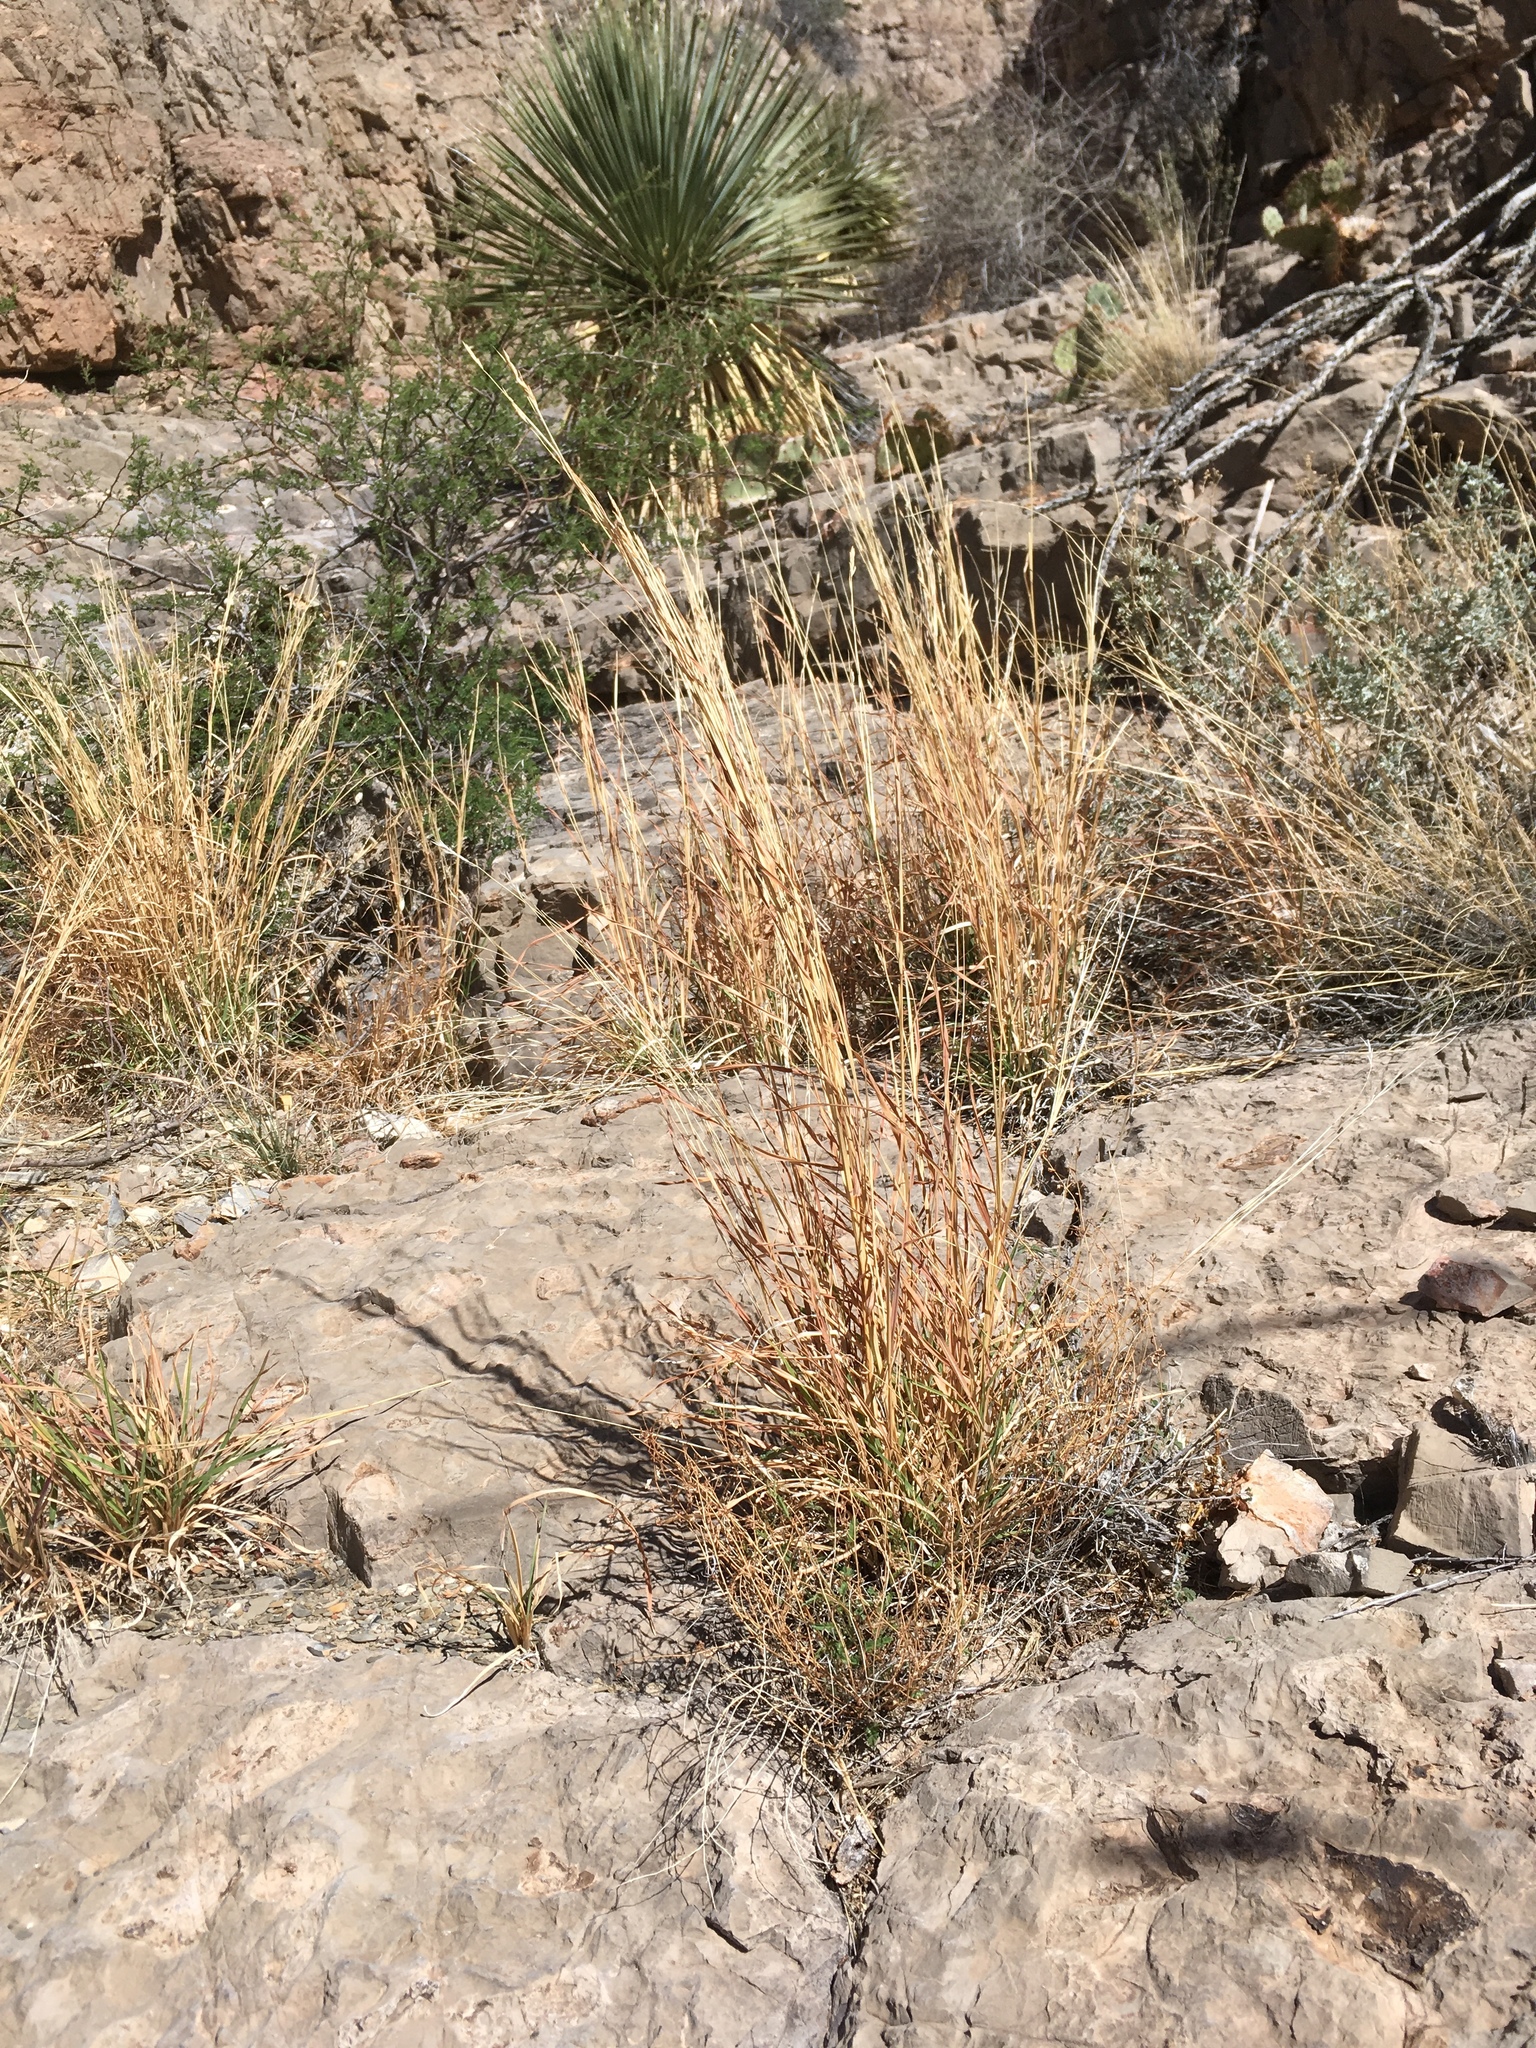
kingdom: Plantae
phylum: Tracheophyta
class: Liliopsida
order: Poales
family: Poaceae
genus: Heteropogon
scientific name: Heteropogon contortus
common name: Tanglehead
